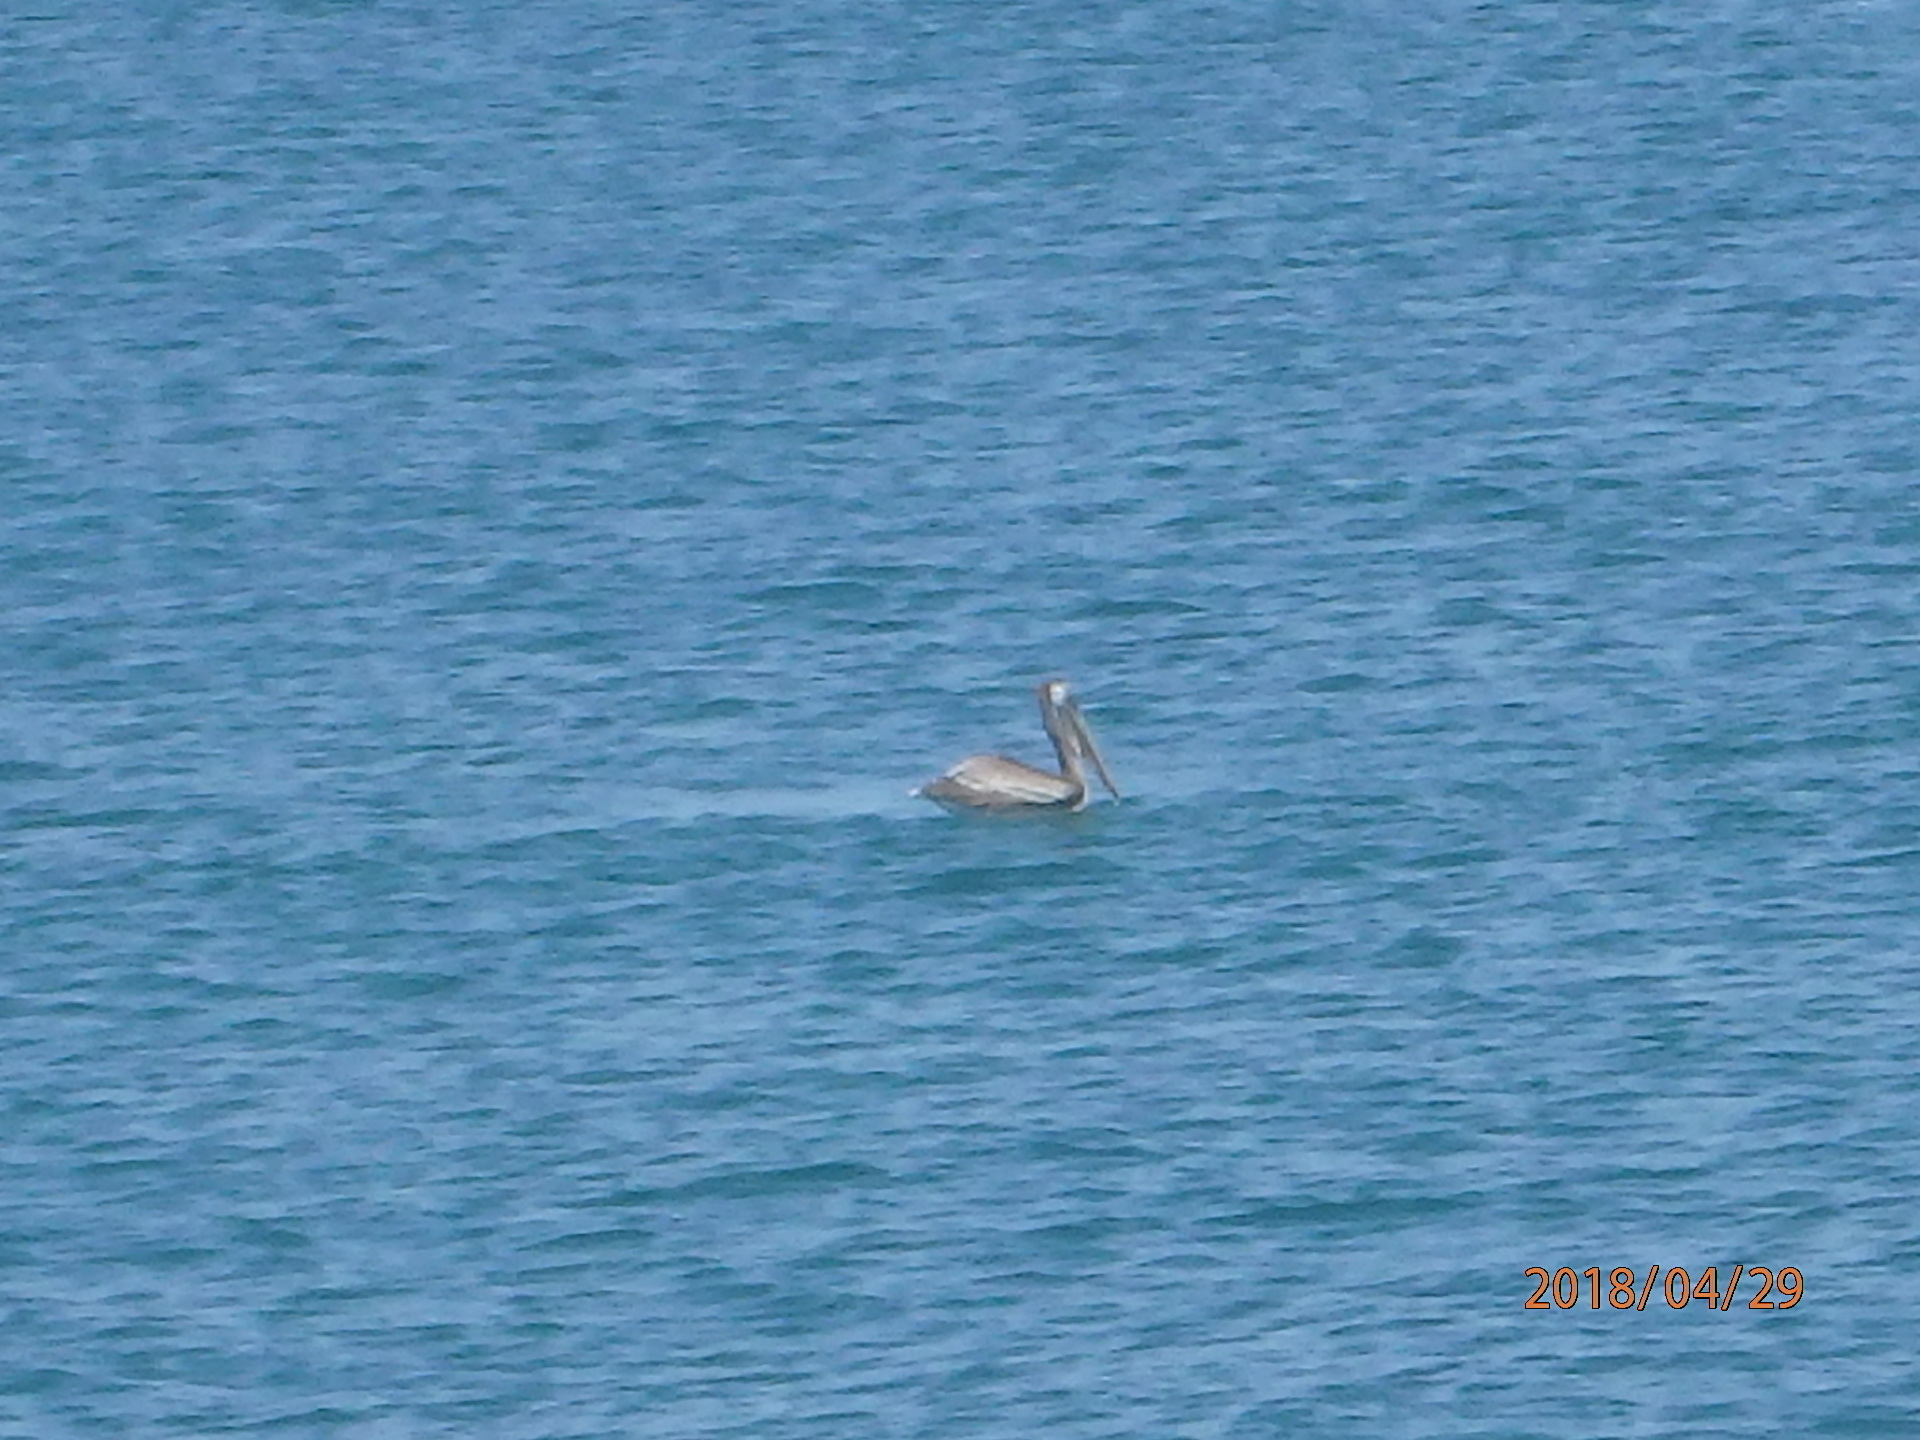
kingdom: Animalia
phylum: Chordata
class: Aves
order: Pelecaniformes
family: Pelecanidae
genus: Pelecanus
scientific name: Pelecanus occidentalis
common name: Brown pelican
